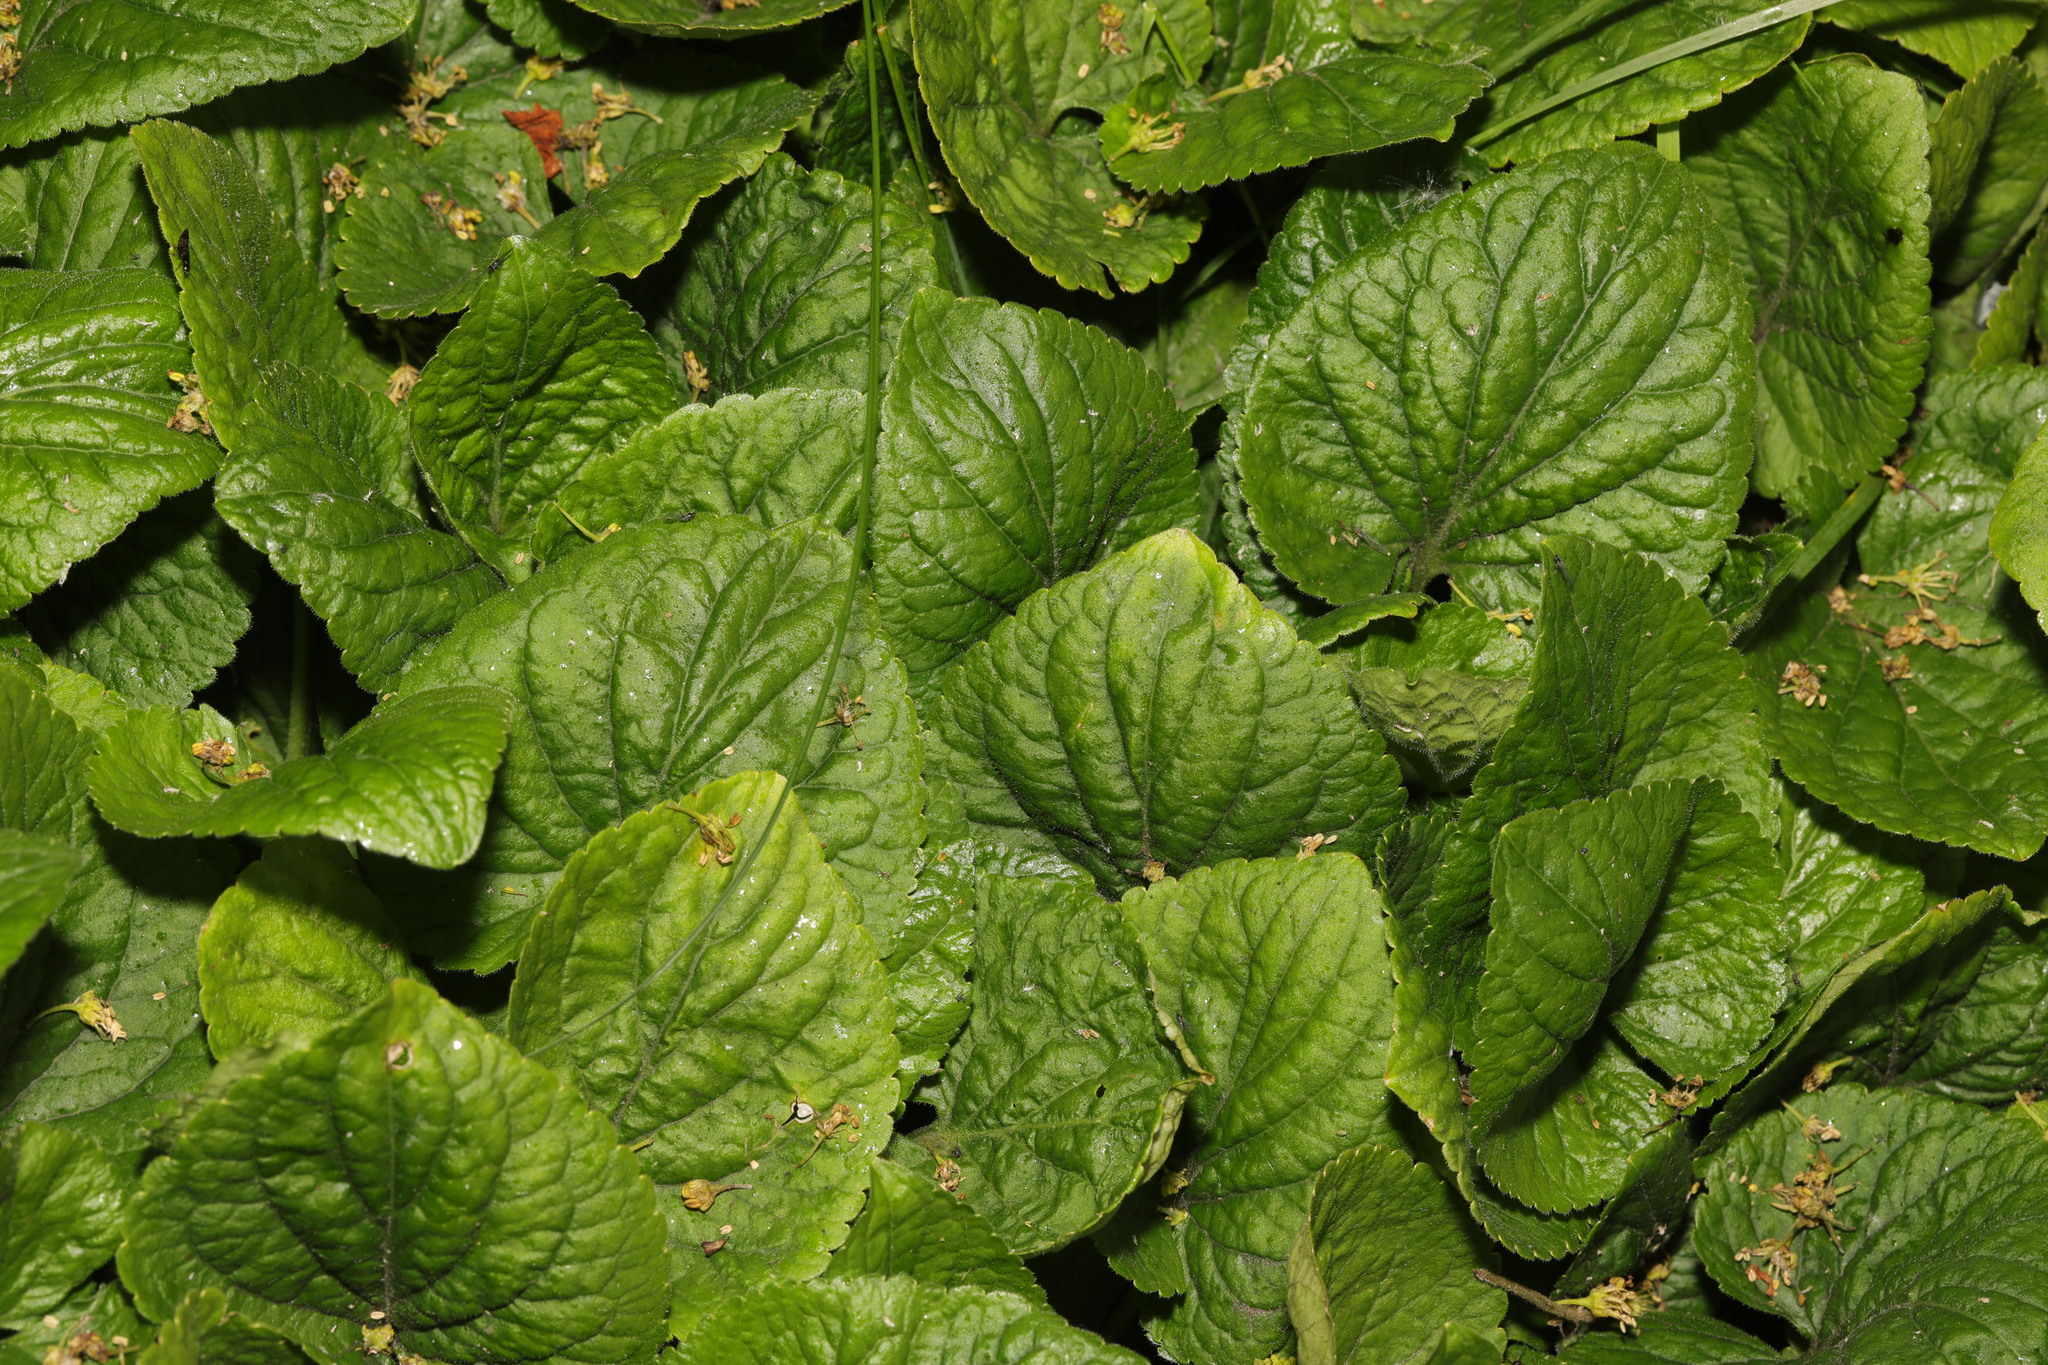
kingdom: Plantae
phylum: Tracheophyta
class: Magnoliopsida
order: Malpighiales
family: Violaceae
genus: Viola
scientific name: Viola odorata
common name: Sweet violet
